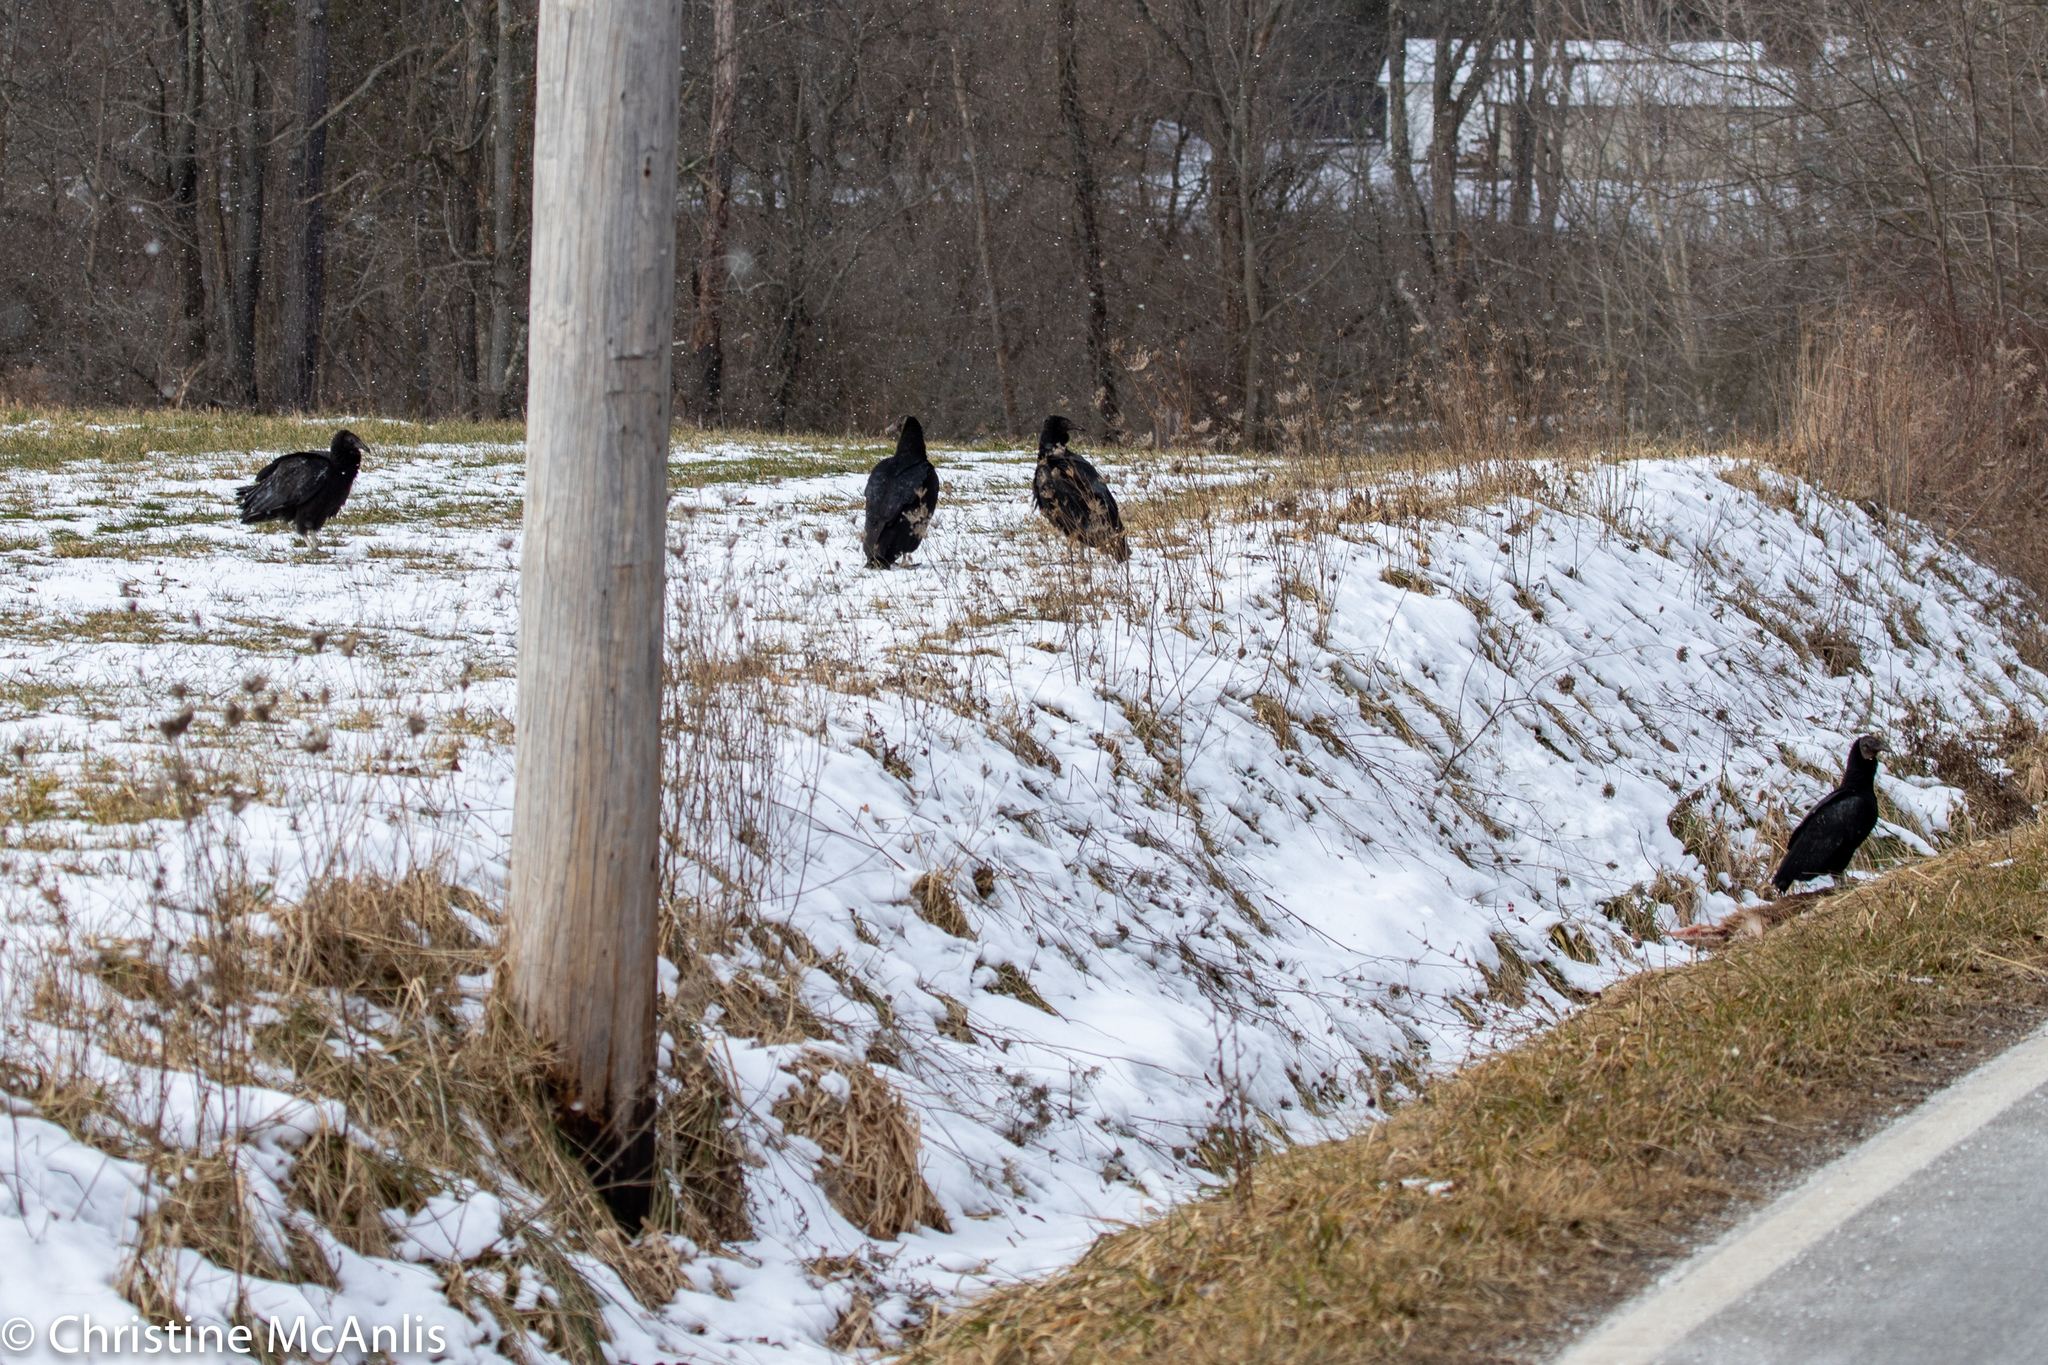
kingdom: Animalia
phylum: Chordata
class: Aves
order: Accipitriformes
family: Cathartidae
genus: Coragyps
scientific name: Coragyps atratus
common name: Black vulture
